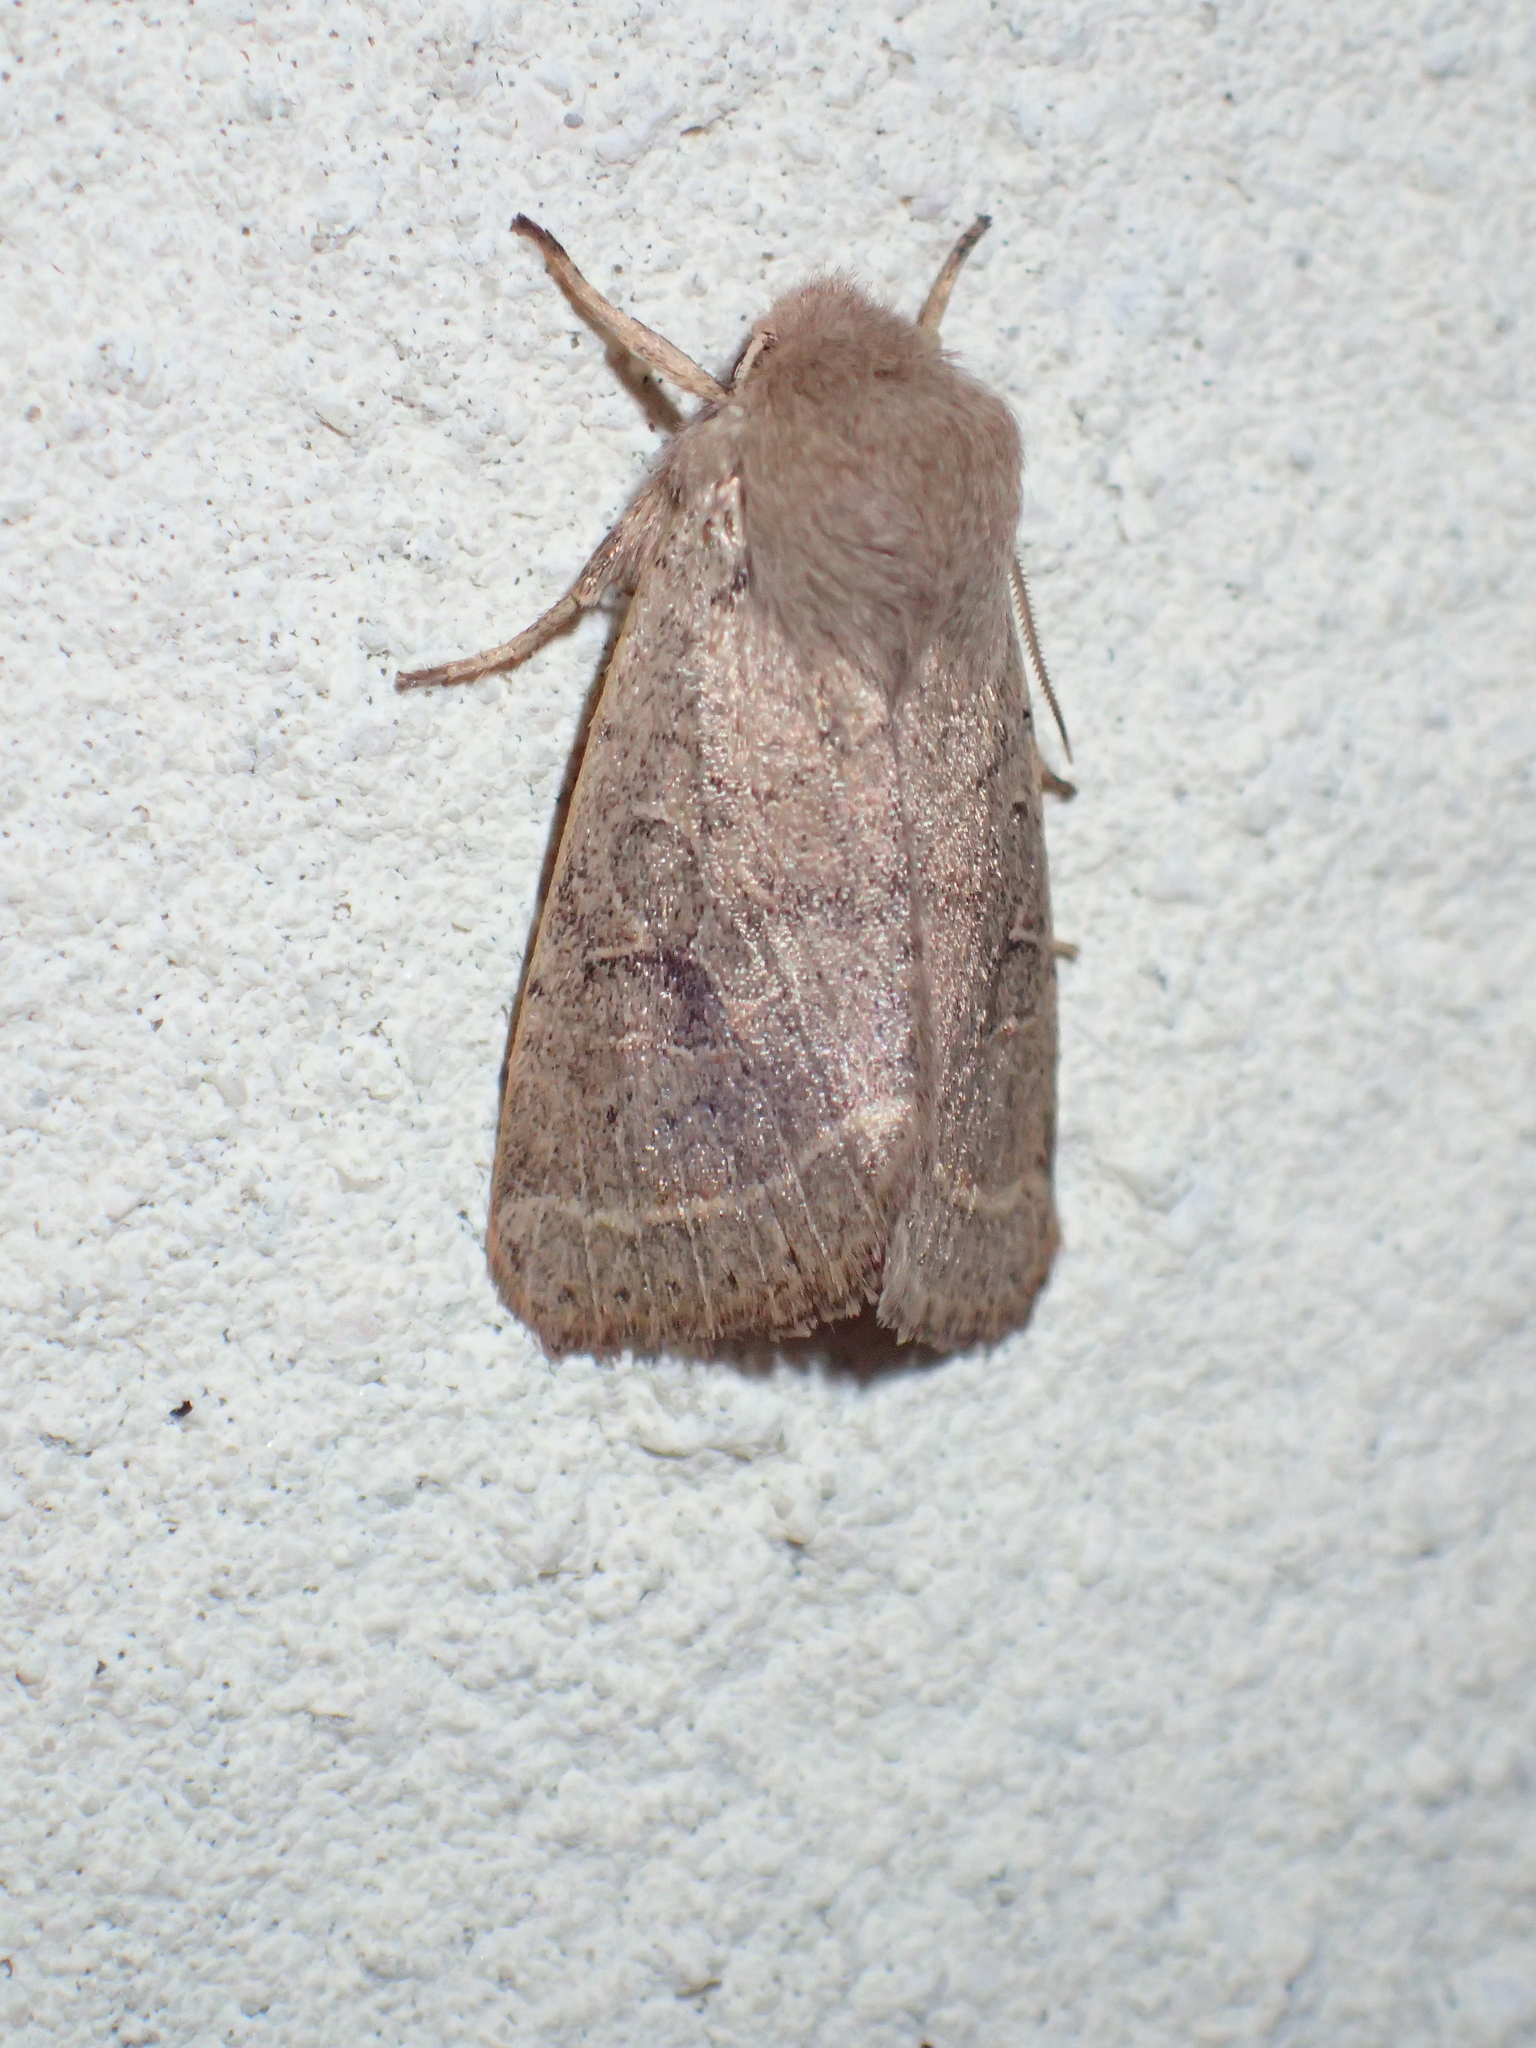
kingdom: Animalia
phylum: Arthropoda
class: Insecta
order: Lepidoptera
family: Noctuidae
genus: Orthosia
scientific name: Orthosia cerasi
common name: Common quaker
